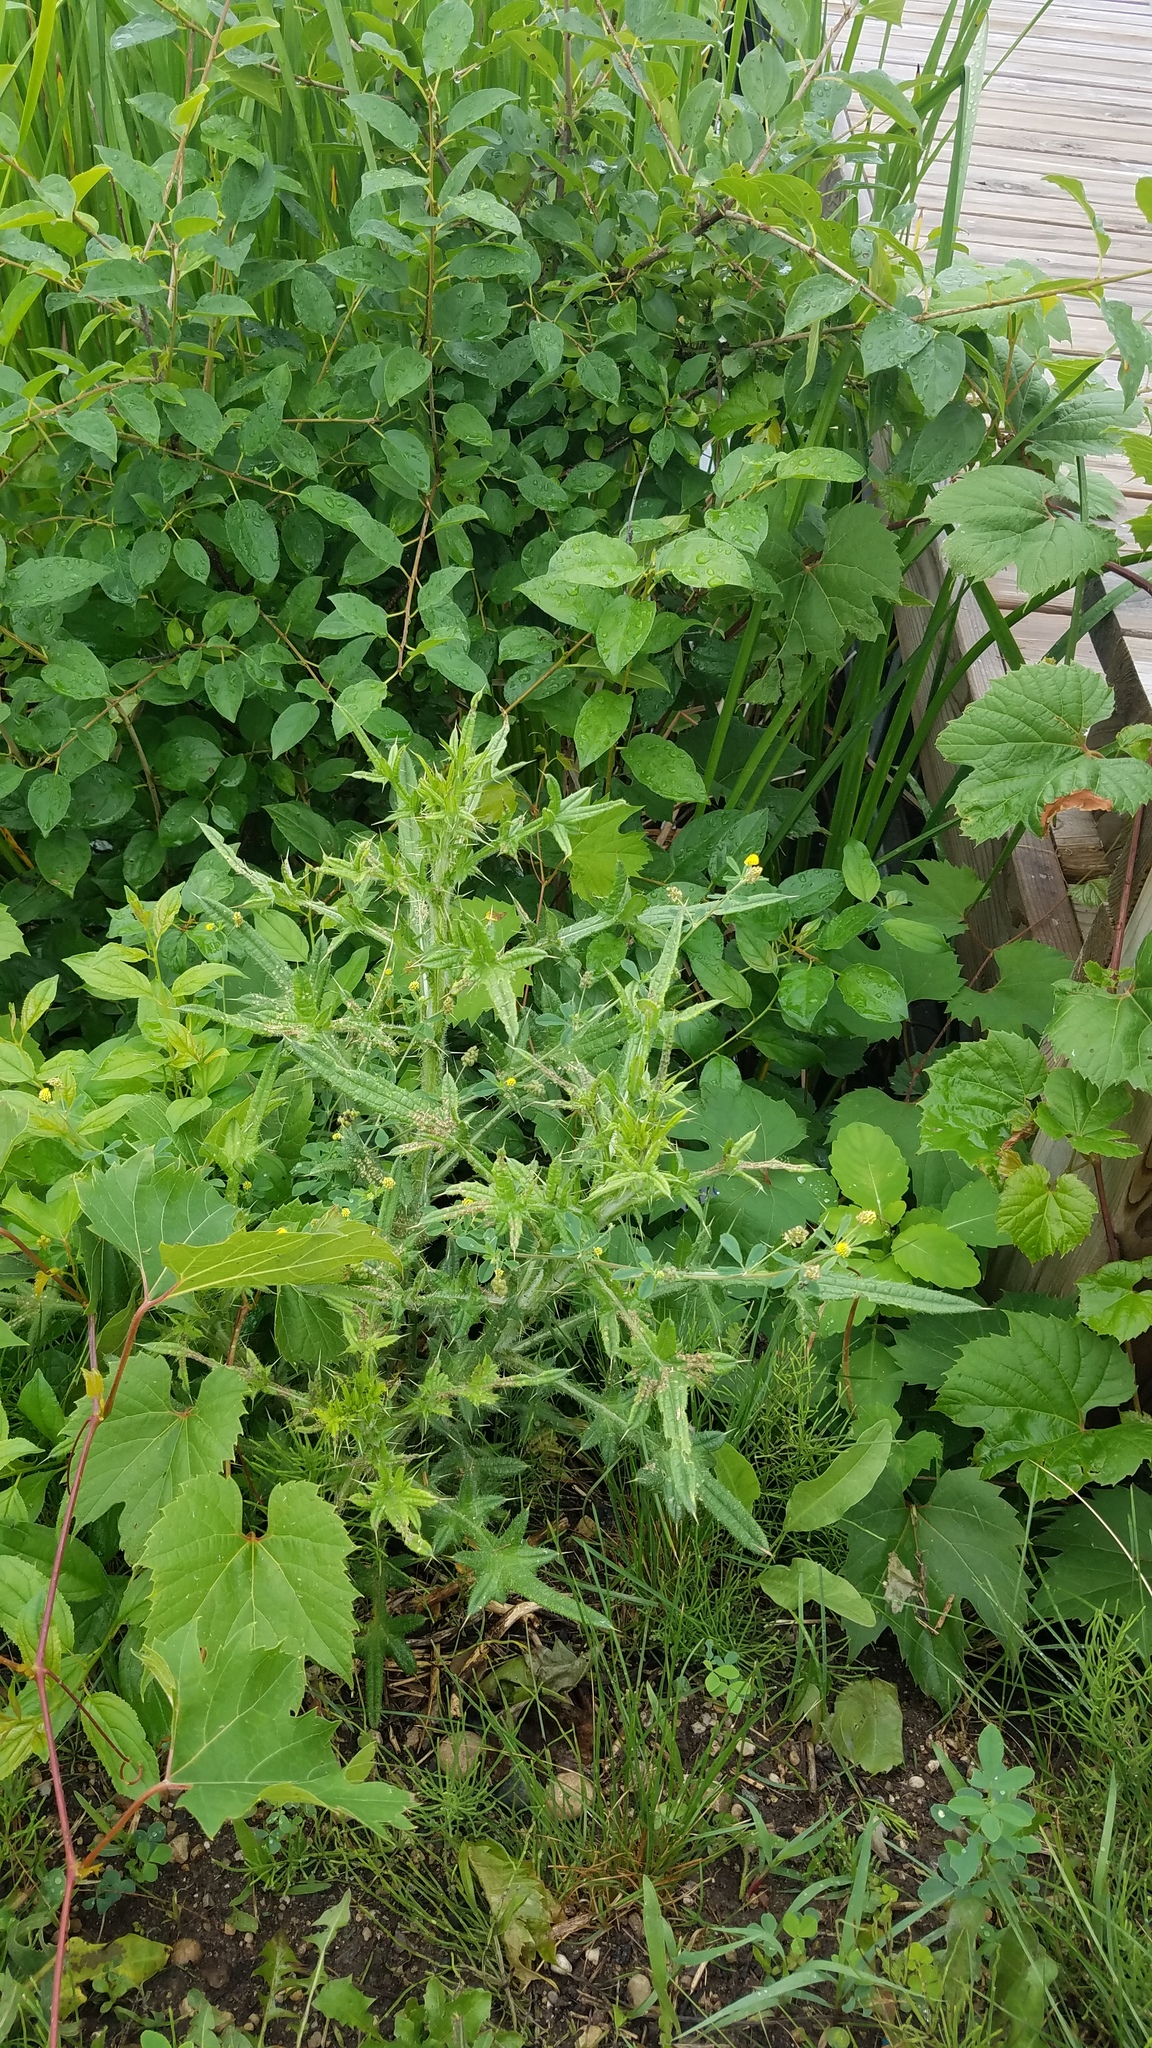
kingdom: Plantae
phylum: Tracheophyta
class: Magnoliopsida
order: Asterales
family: Asteraceae
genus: Cirsium
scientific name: Cirsium vulgare
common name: Bull thistle
